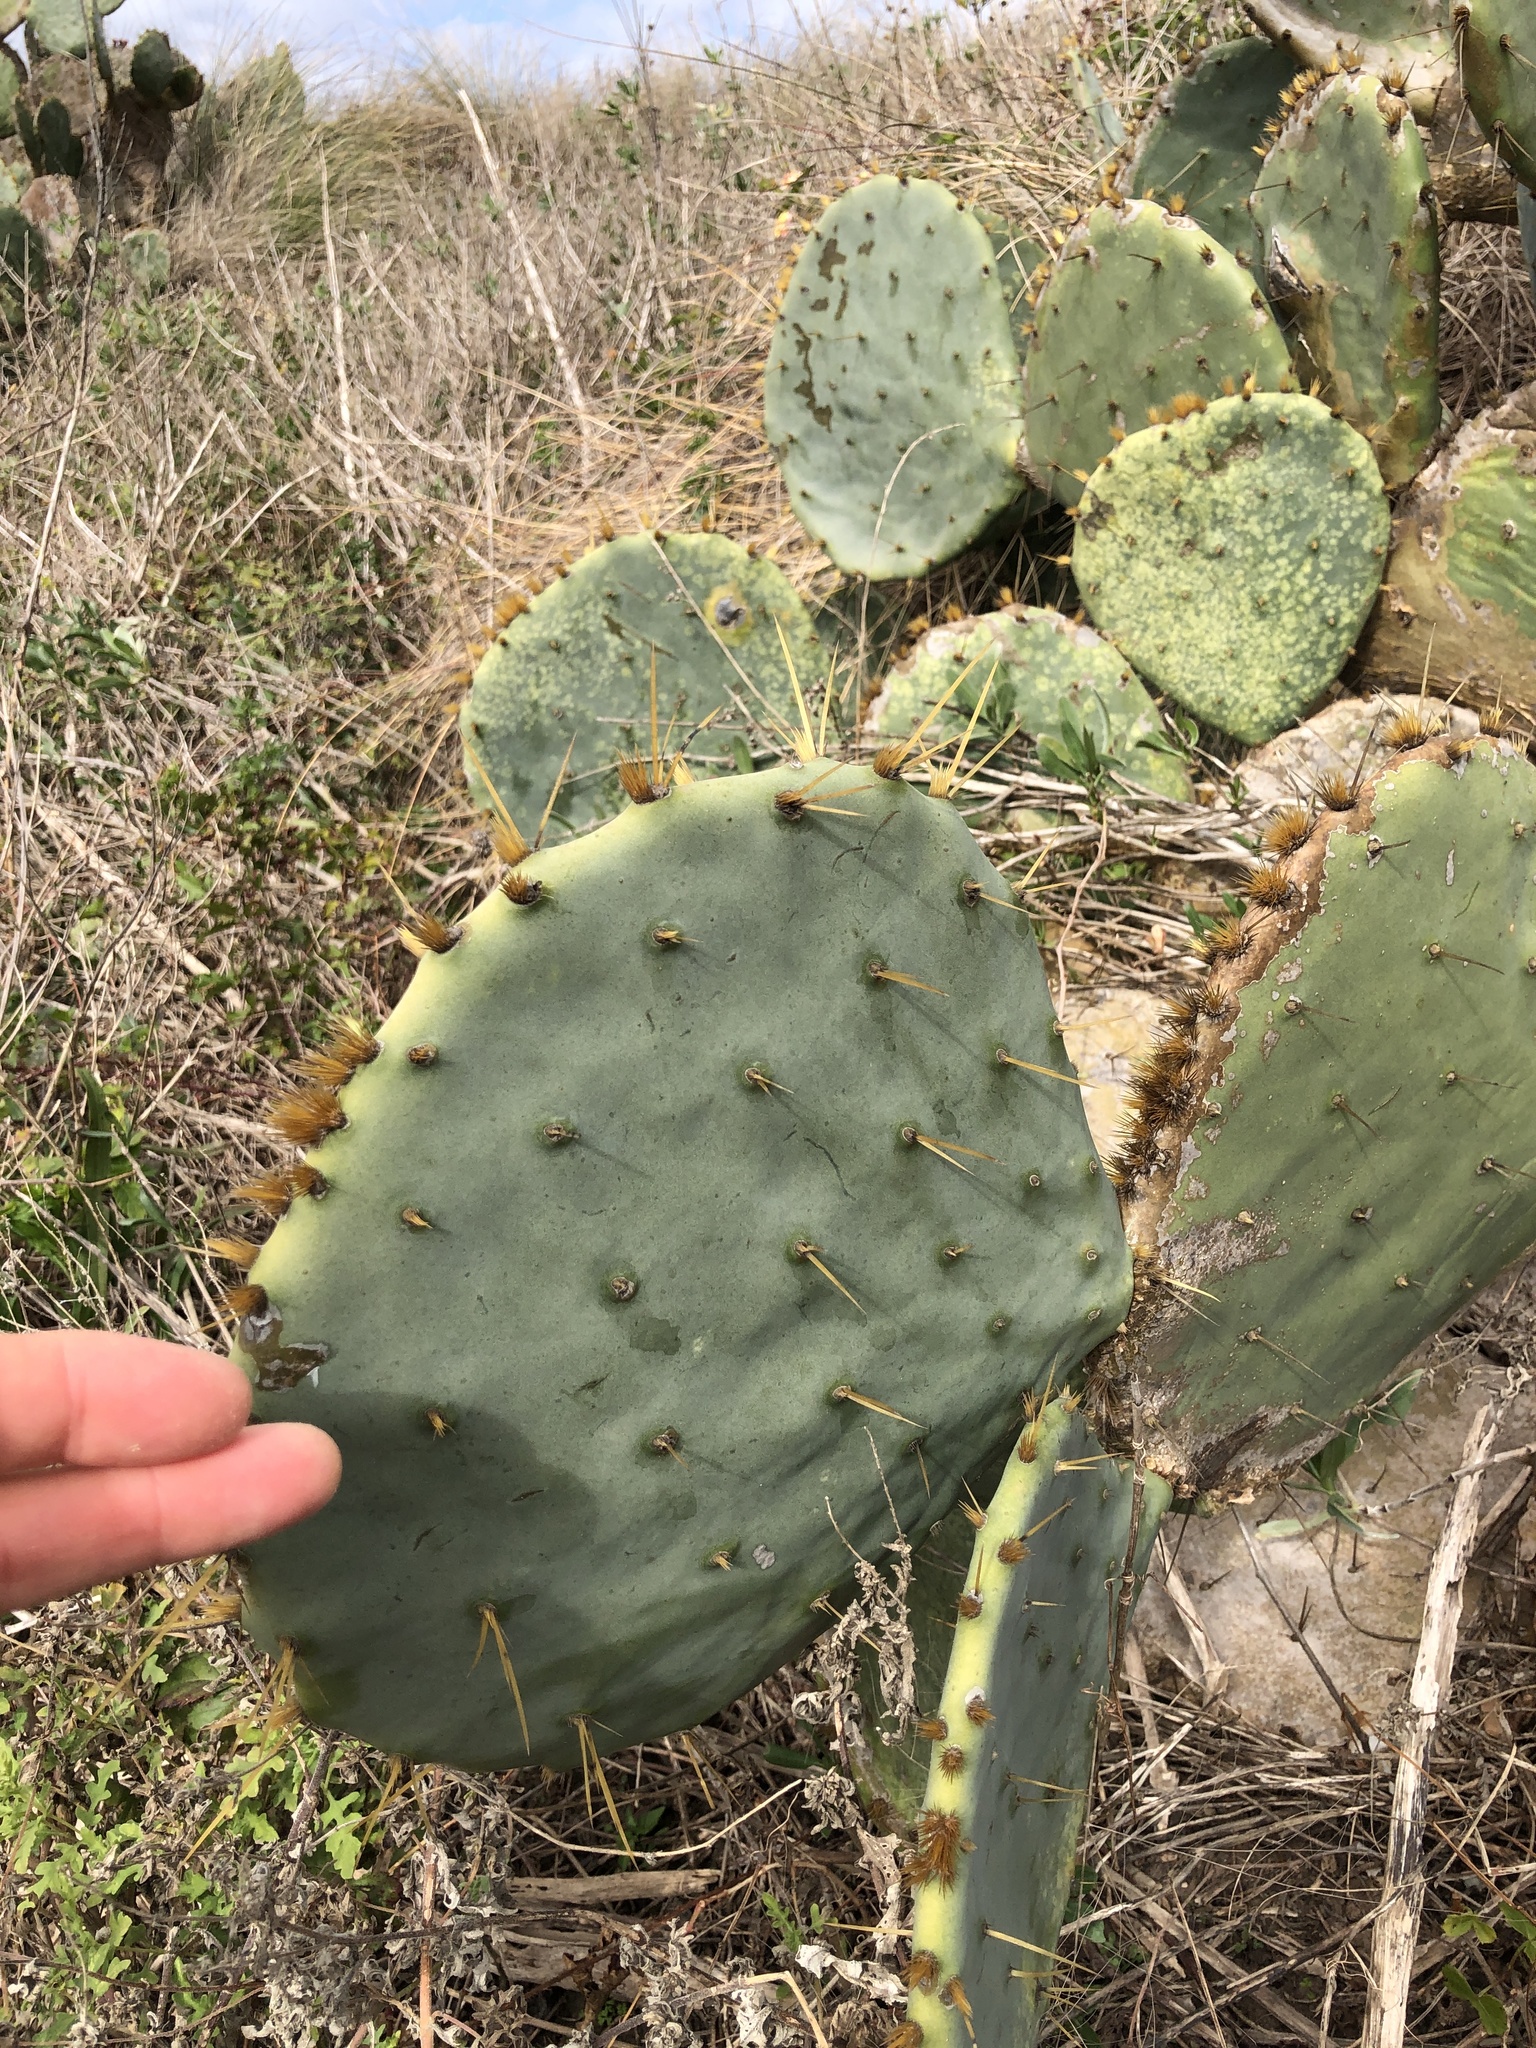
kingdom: Plantae
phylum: Tracheophyta
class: Magnoliopsida
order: Caryophyllales
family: Cactaceae
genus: Opuntia
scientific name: Opuntia
